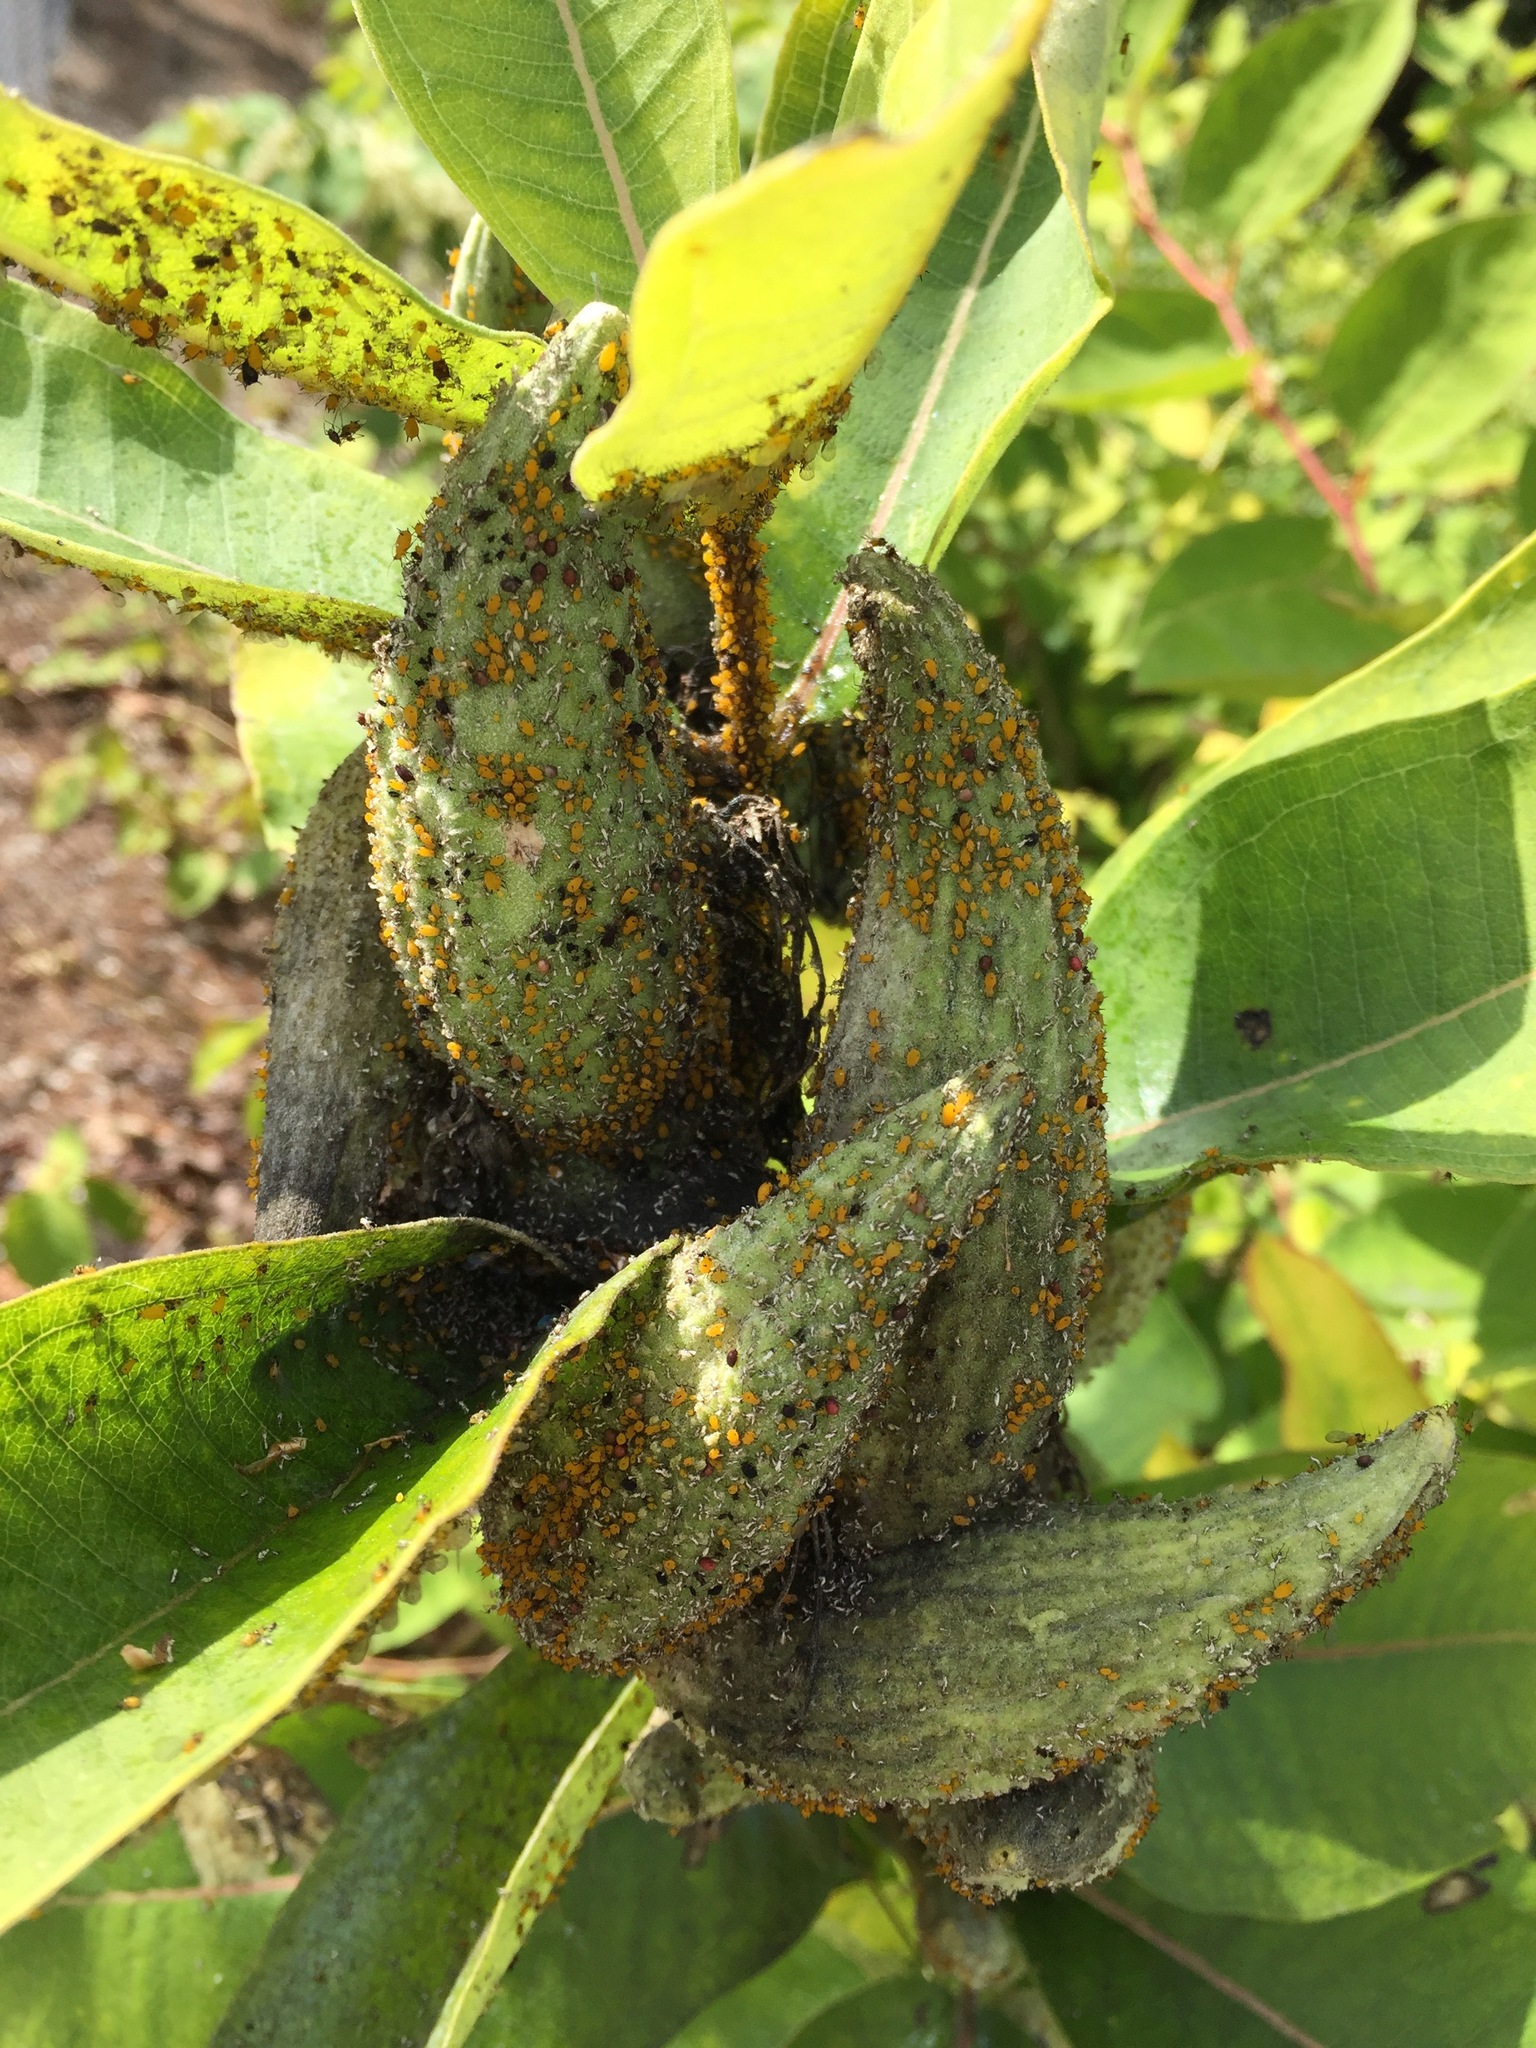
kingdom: Animalia
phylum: Arthropoda
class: Insecta
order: Hemiptera
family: Aphididae
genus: Aphis
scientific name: Aphis nerii
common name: Oleander aphid
